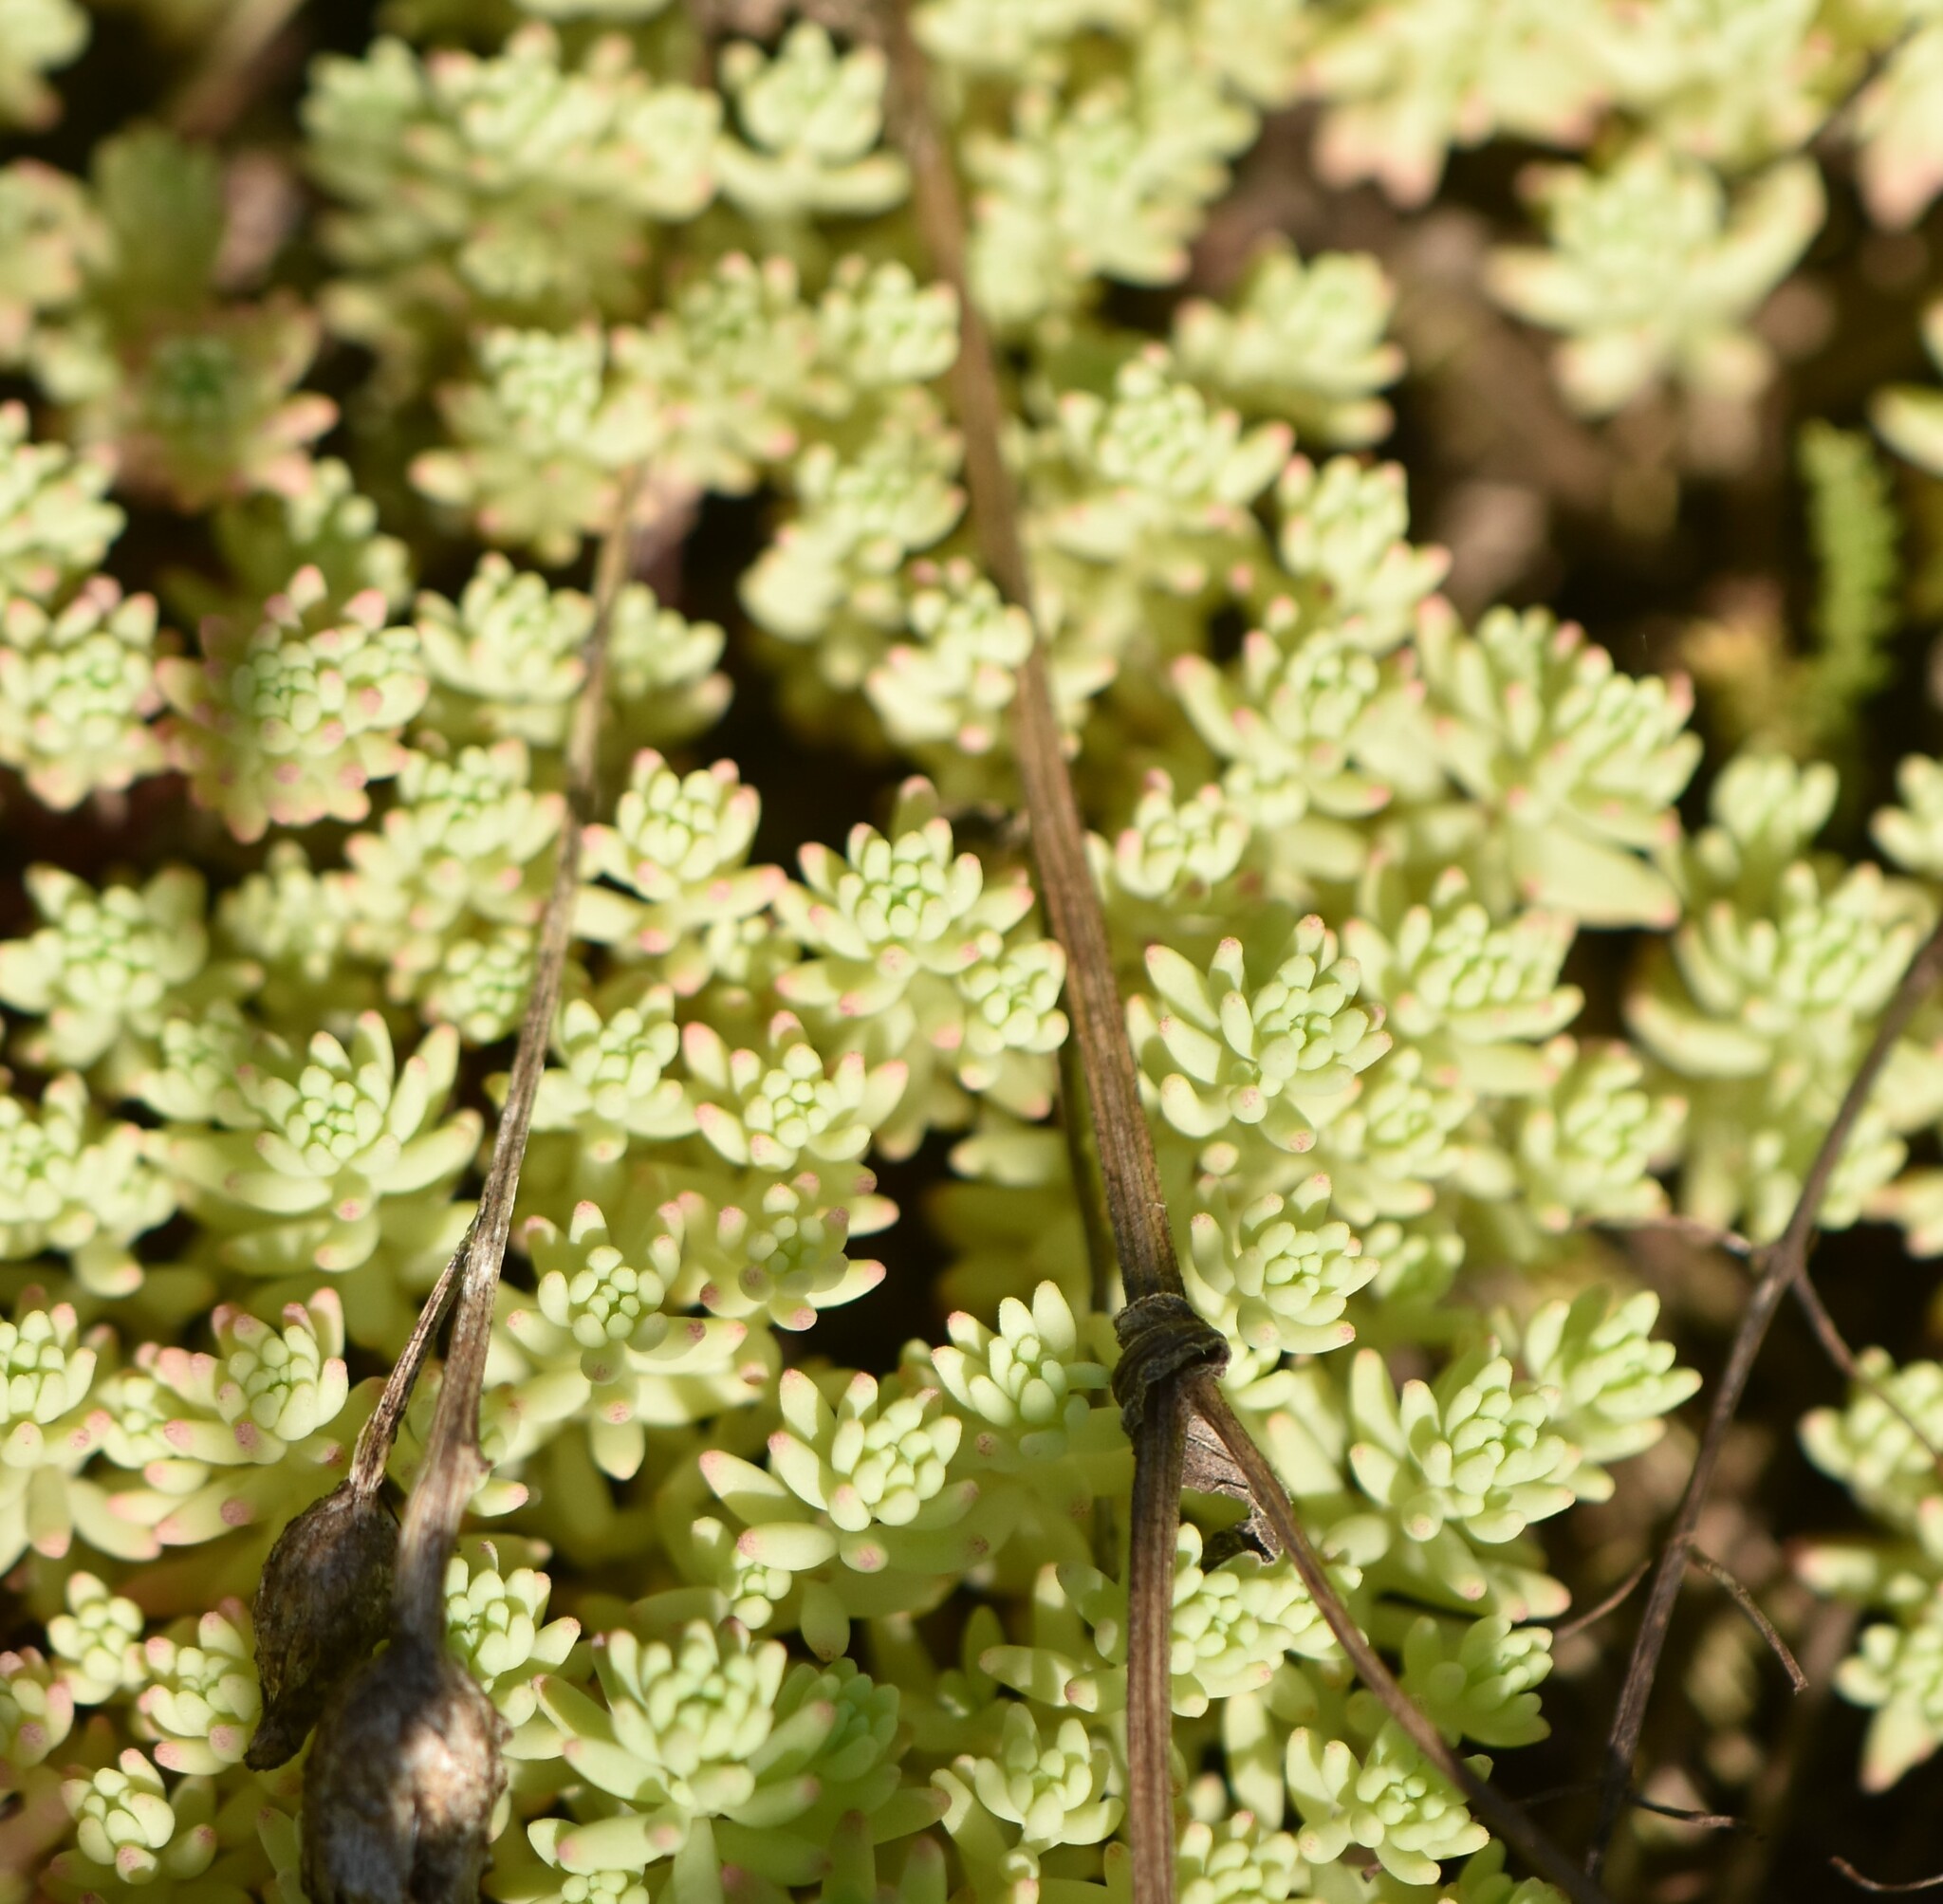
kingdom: Plantae
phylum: Tracheophyta
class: Magnoliopsida
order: Saxifragales
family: Crassulaceae
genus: Sedum
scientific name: Sedum pallidum
